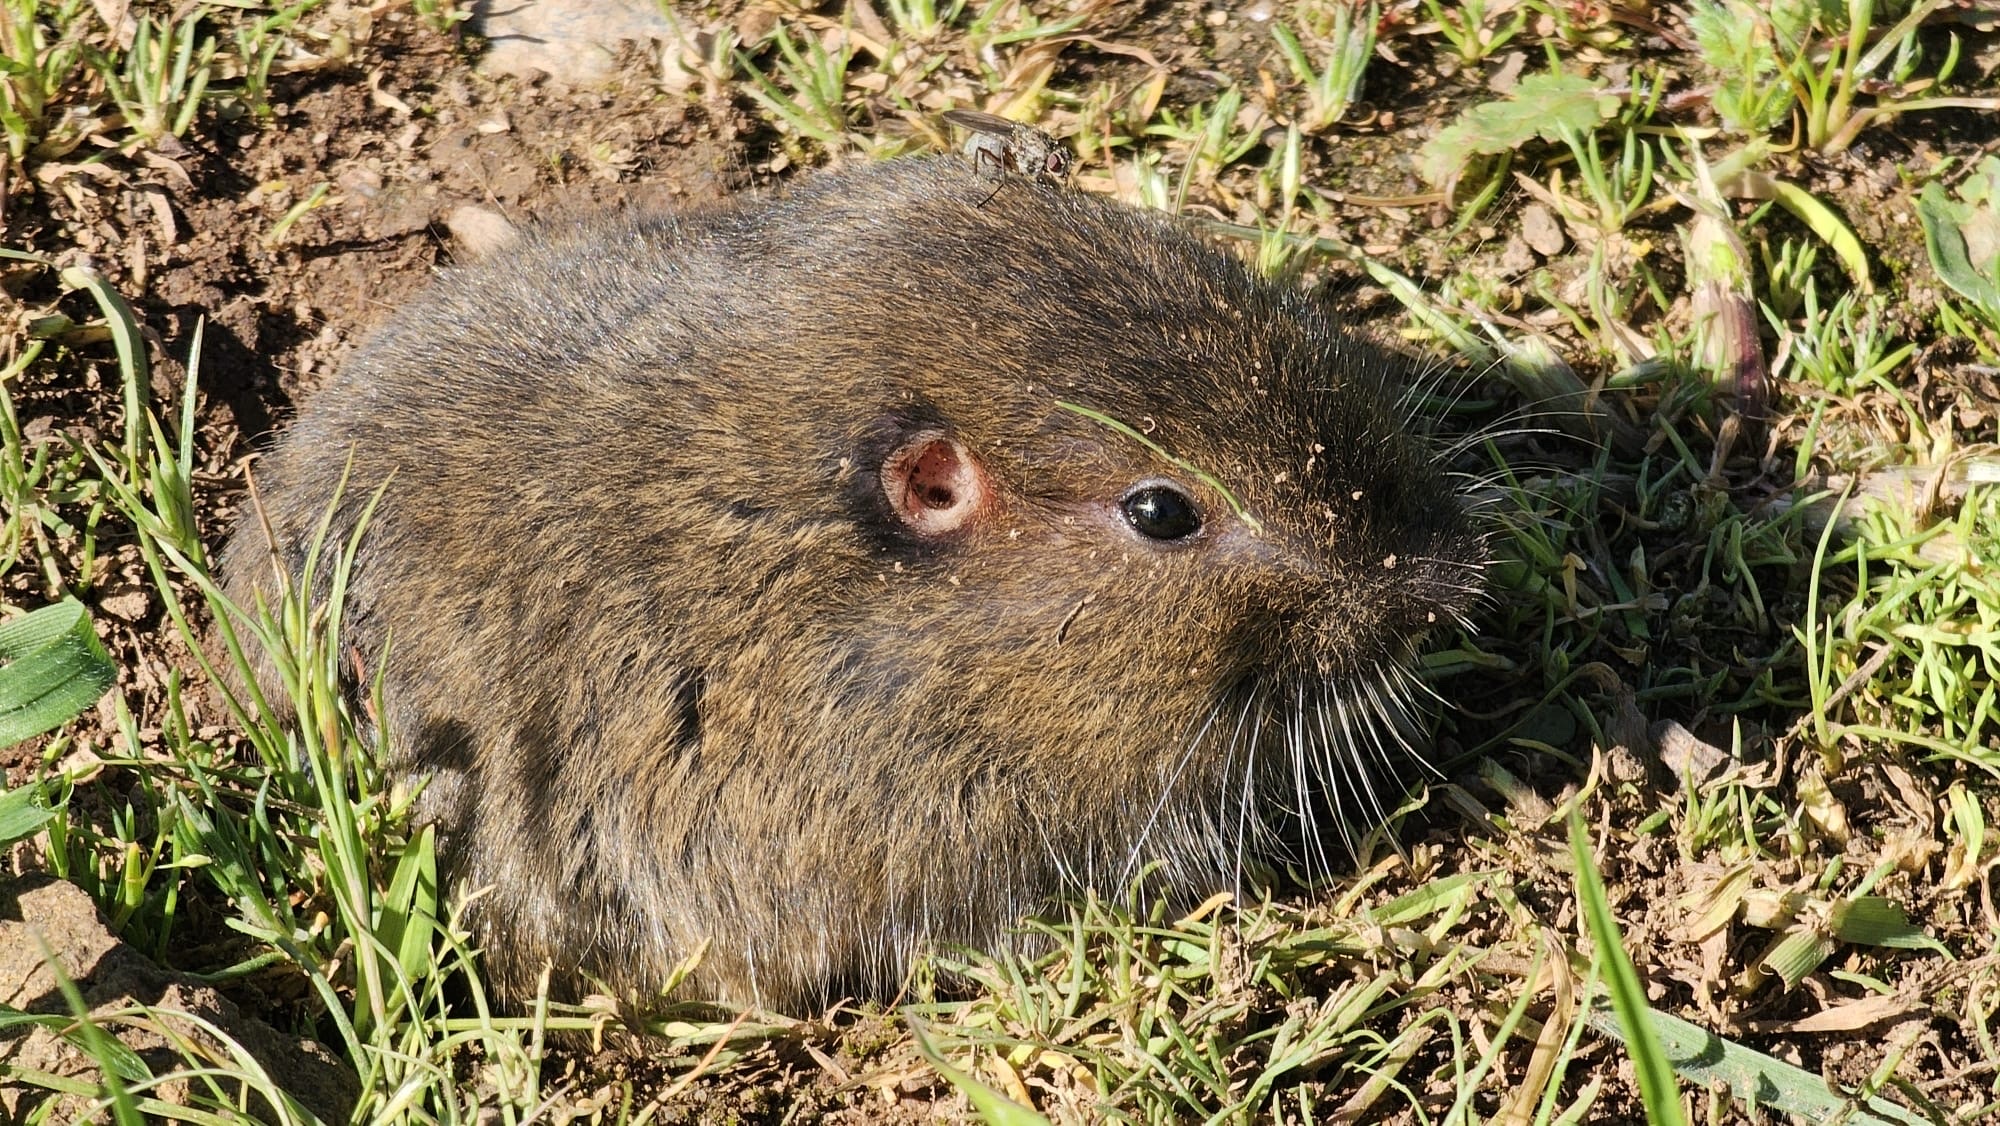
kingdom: Animalia
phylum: Chordata
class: Mammalia
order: Rodentia
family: Geomyidae
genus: Thomomys
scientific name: Thomomys bottae
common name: Botta's pocket gopher
